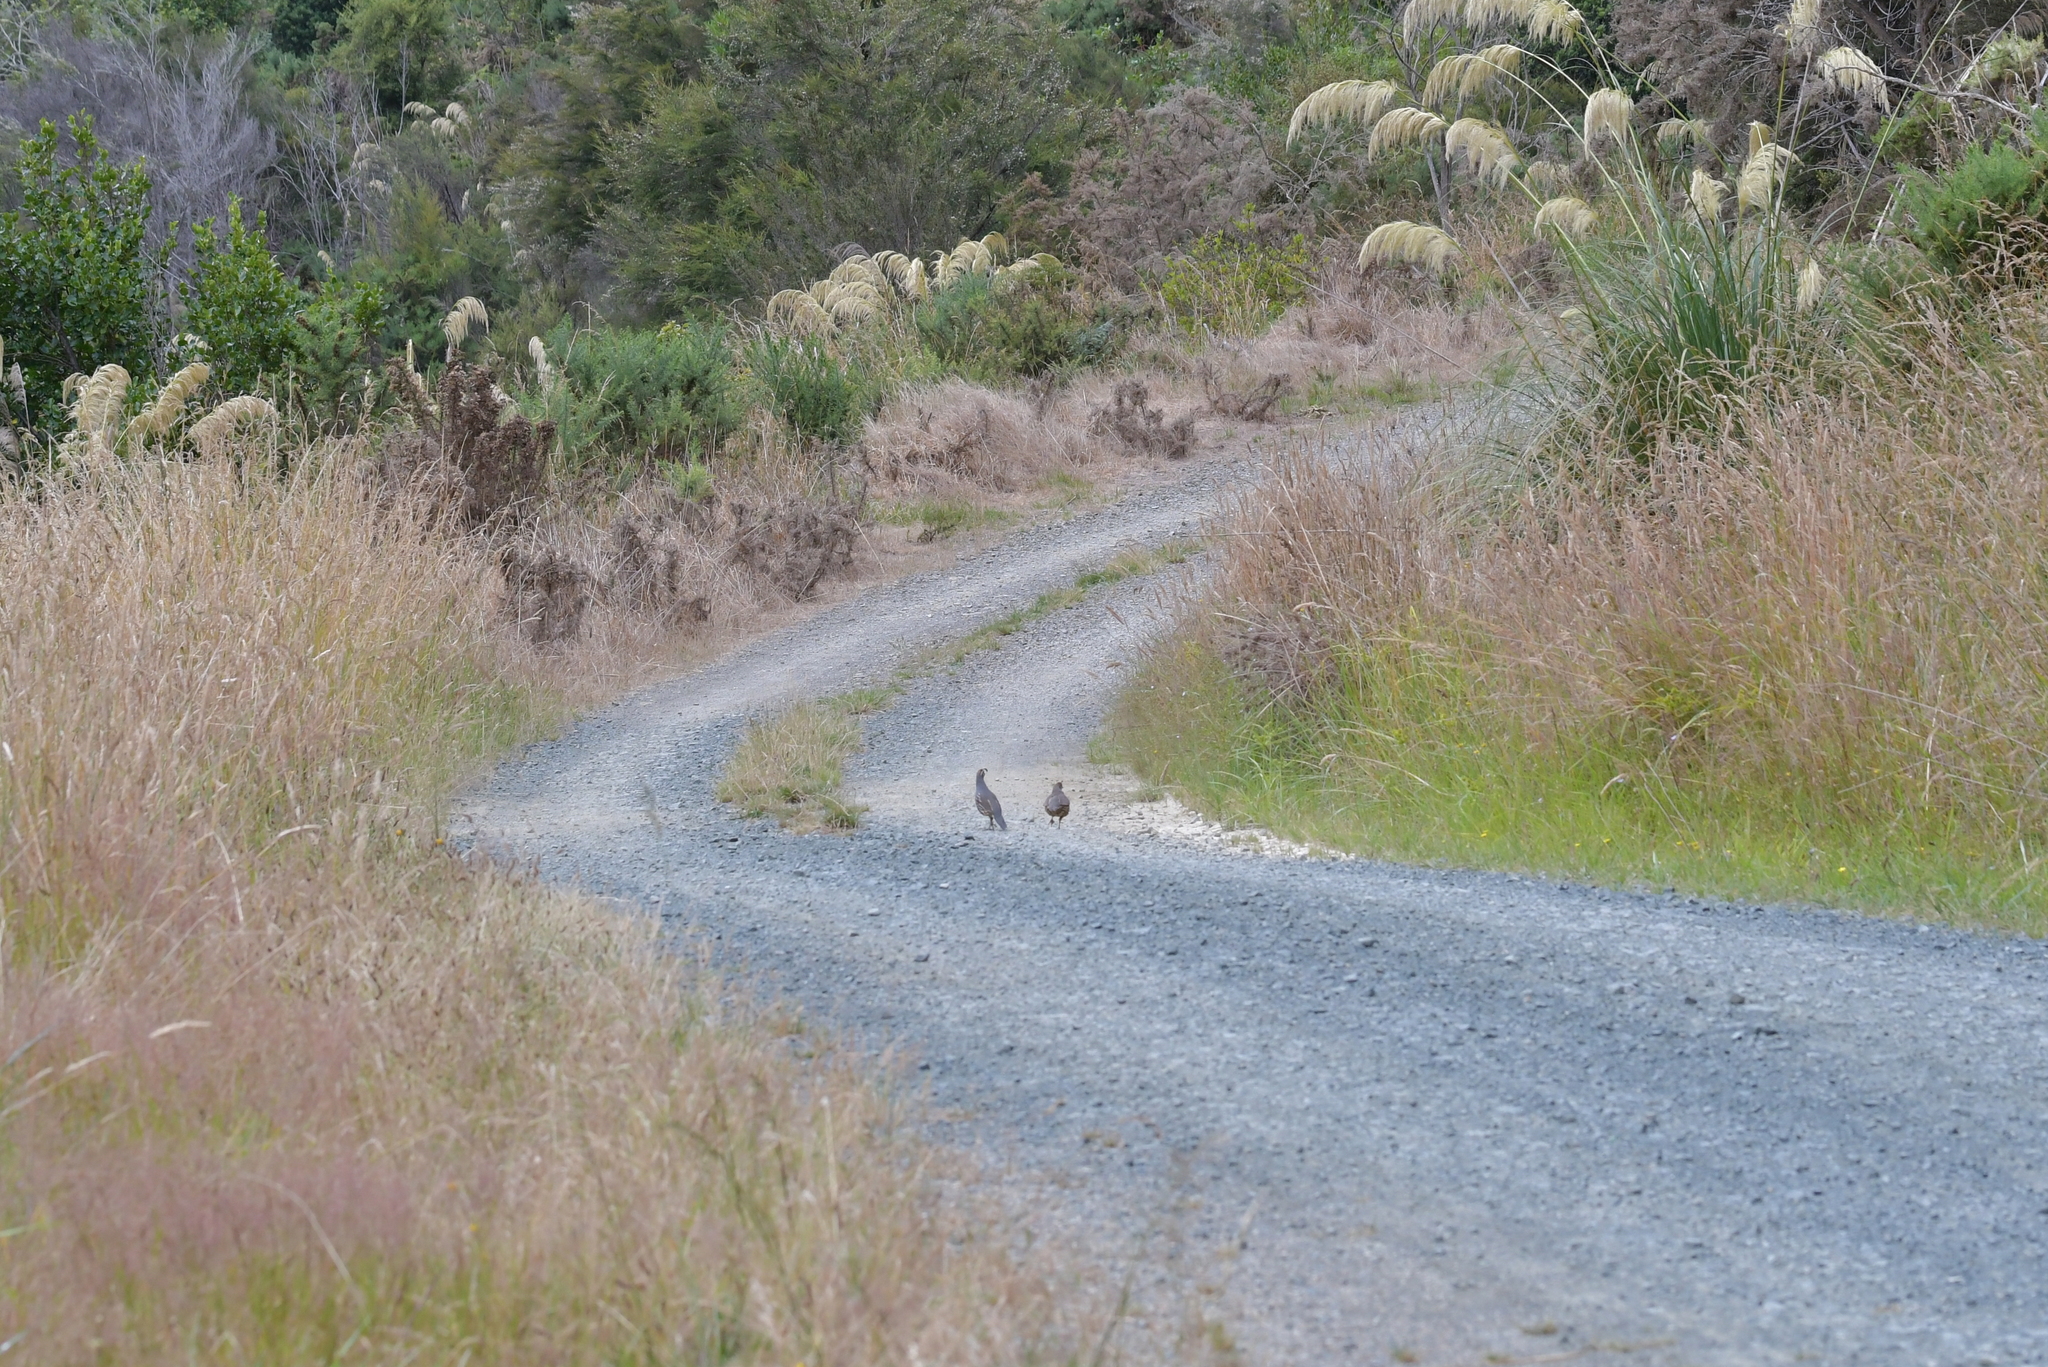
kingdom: Animalia
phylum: Chordata
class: Aves
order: Galliformes
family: Odontophoridae
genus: Callipepla
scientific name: Callipepla californica
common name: California quail
